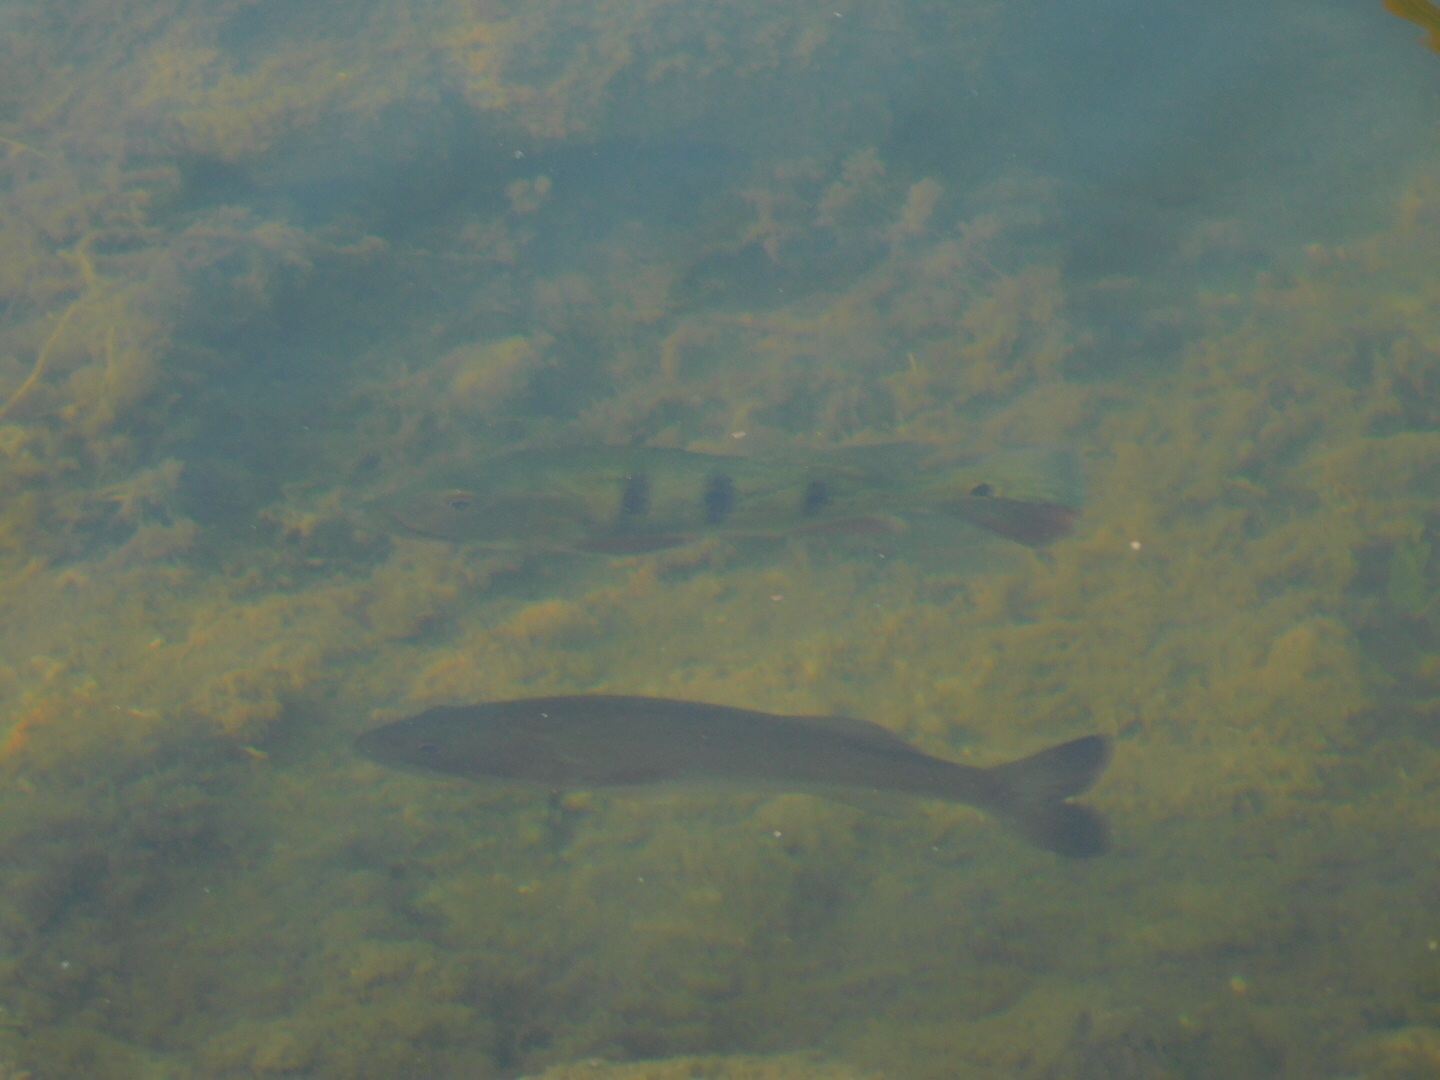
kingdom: Animalia
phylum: Chordata
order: Perciformes
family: Cichlidae
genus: Cichla
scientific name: Cichla ocellaris
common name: Peacock cichlid
